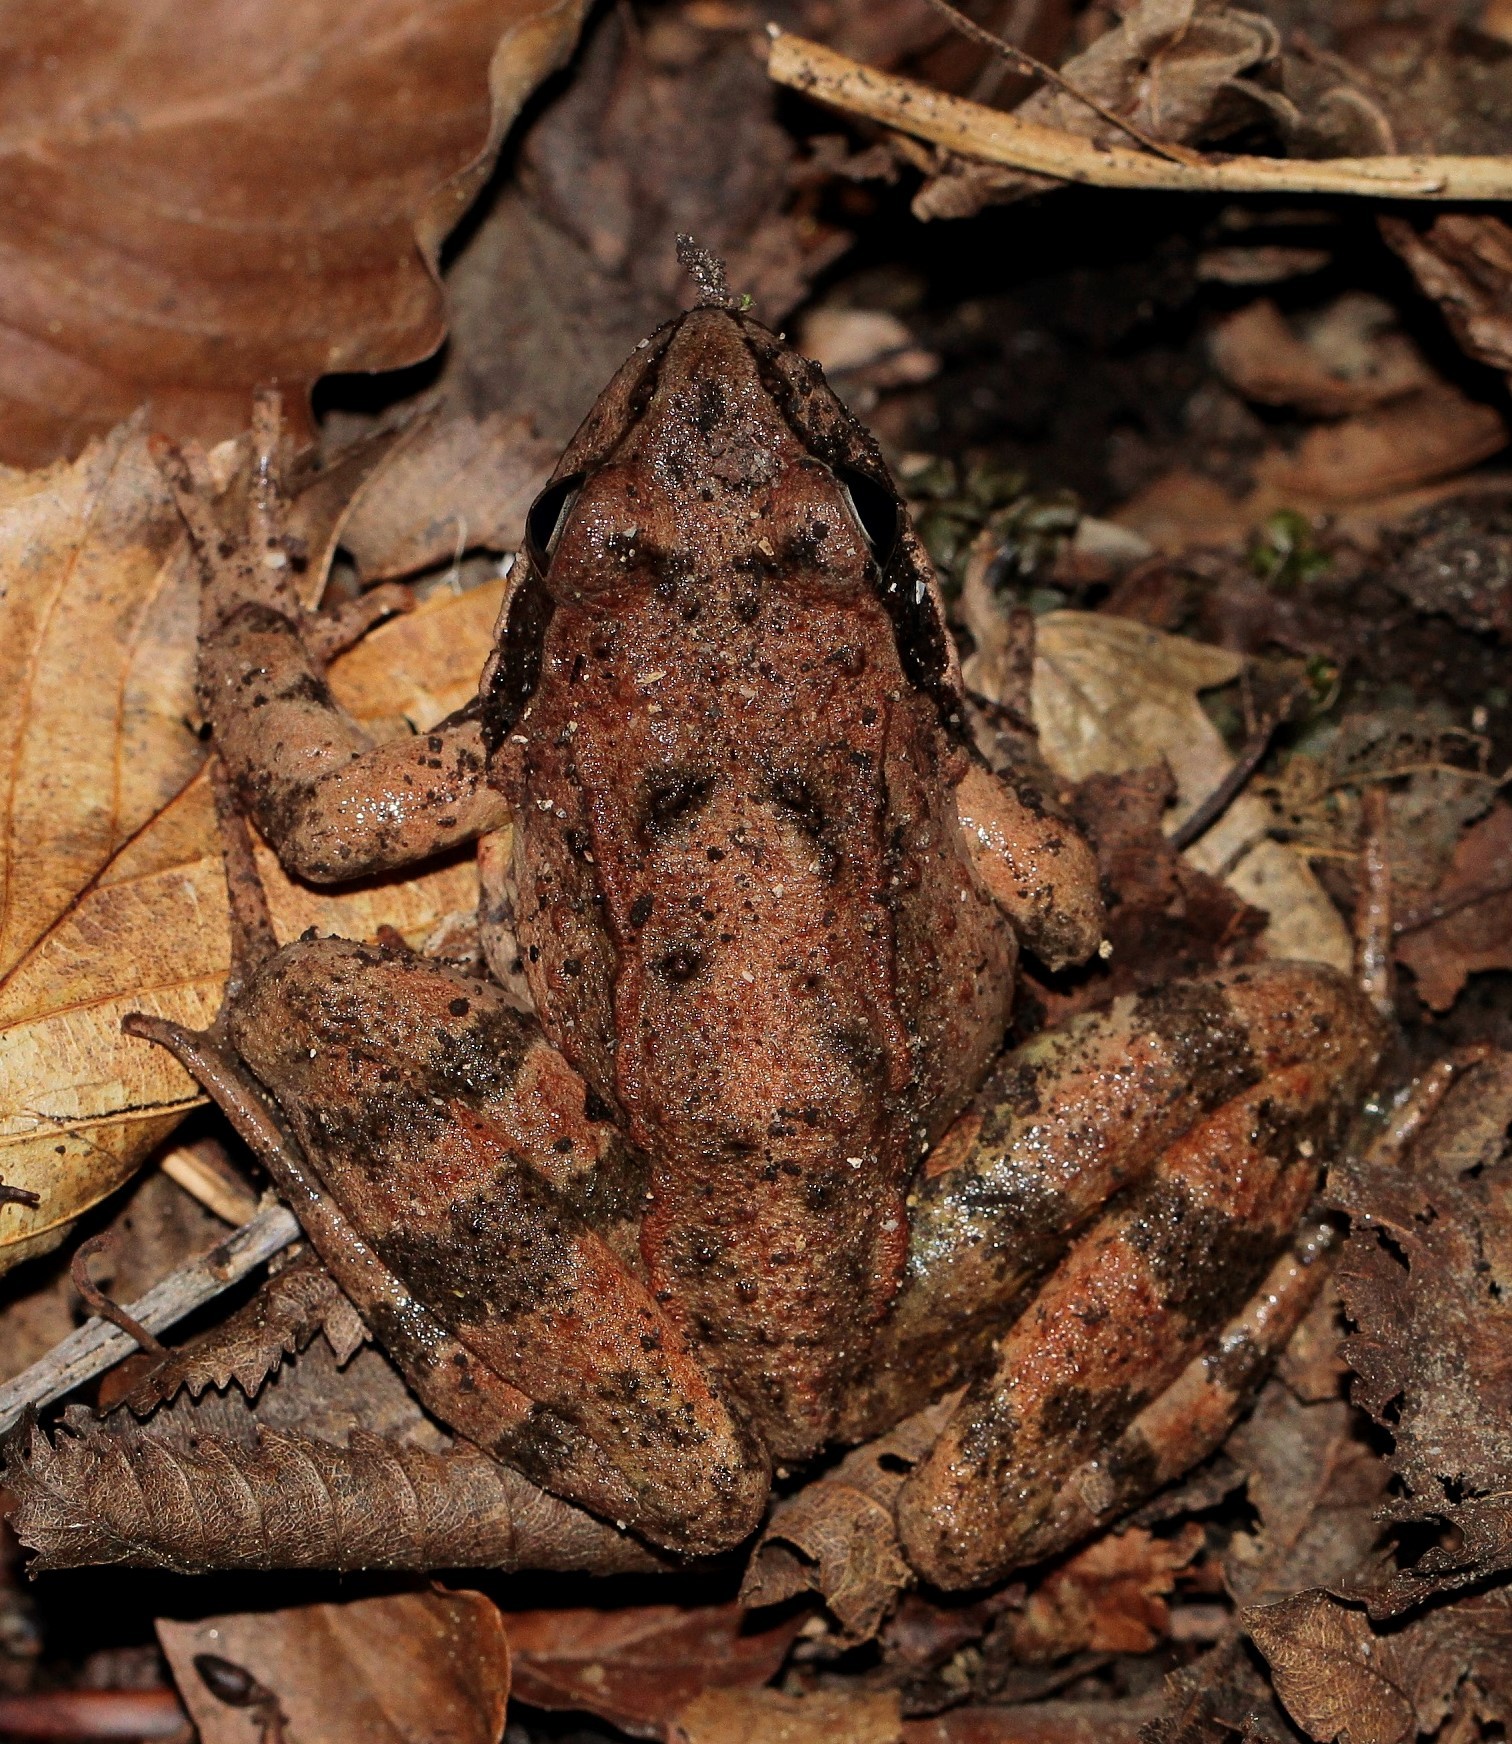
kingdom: Animalia
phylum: Chordata
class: Amphibia
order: Anura
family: Ranidae
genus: Rana
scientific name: Rana macrocnemis
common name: Banded frog
